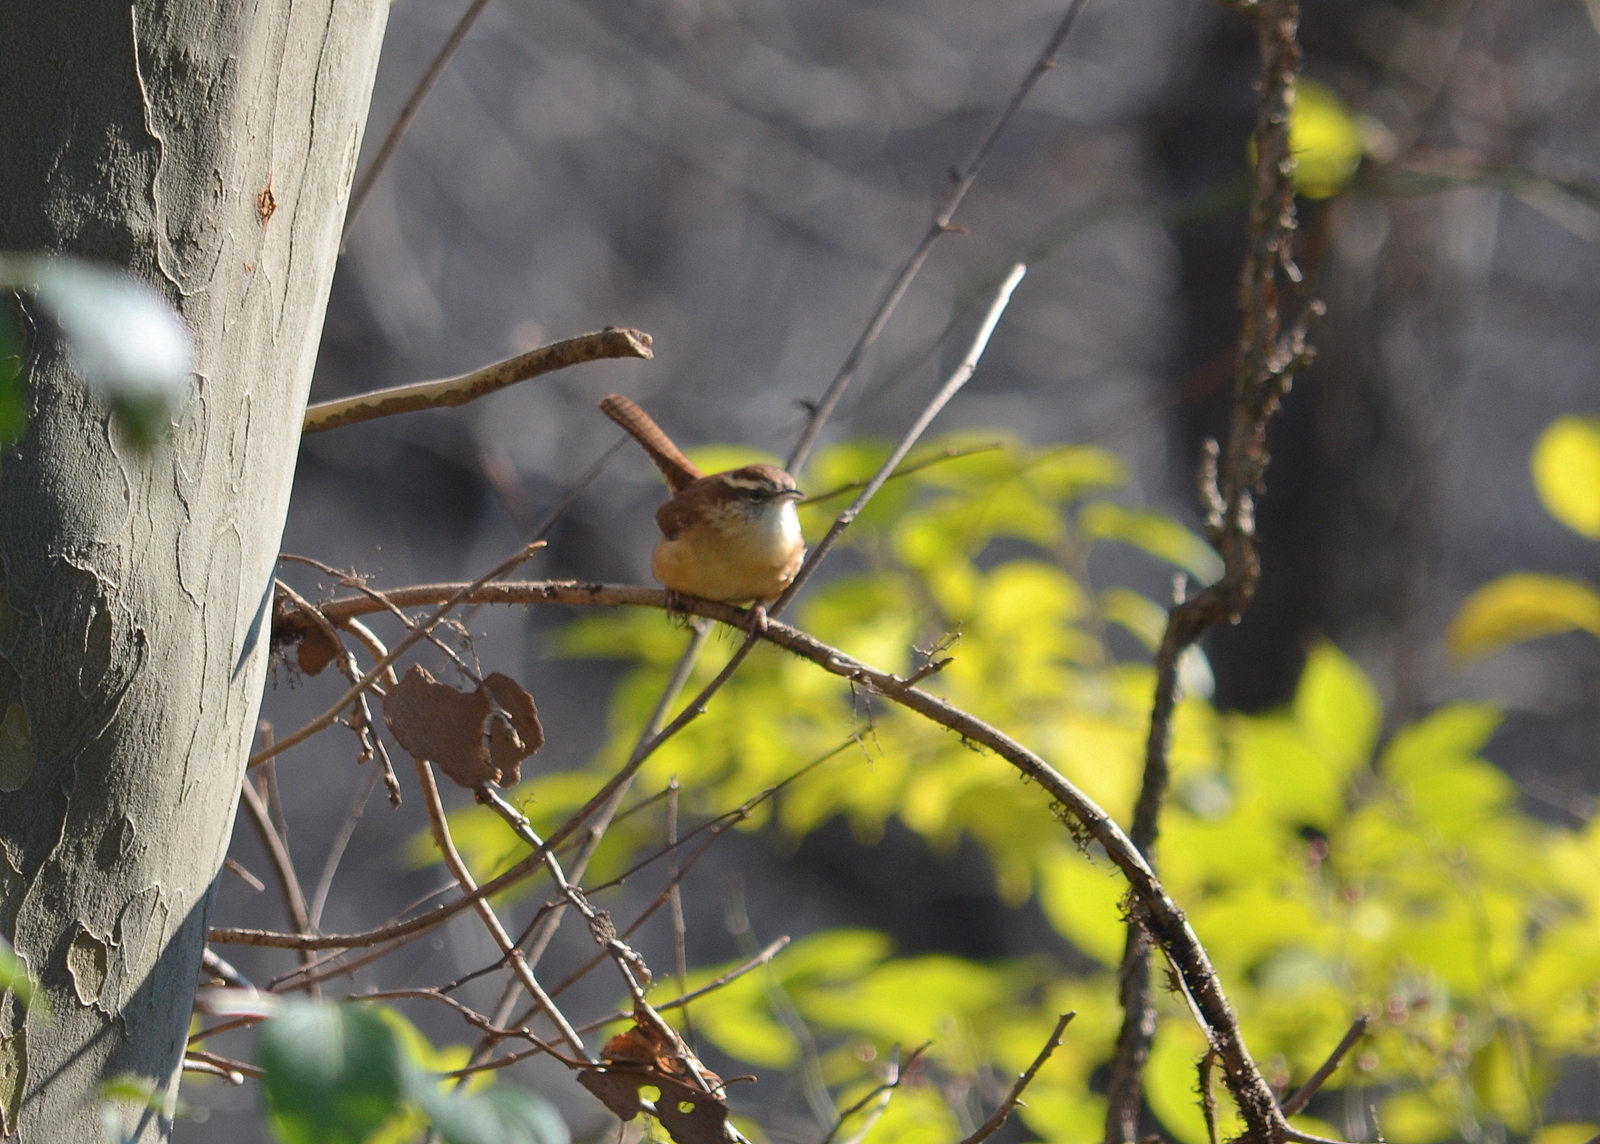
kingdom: Animalia
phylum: Chordata
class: Aves
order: Passeriformes
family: Troglodytidae
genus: Thryothorus
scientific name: Thryothorus ludovicianus
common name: Carolina wren
